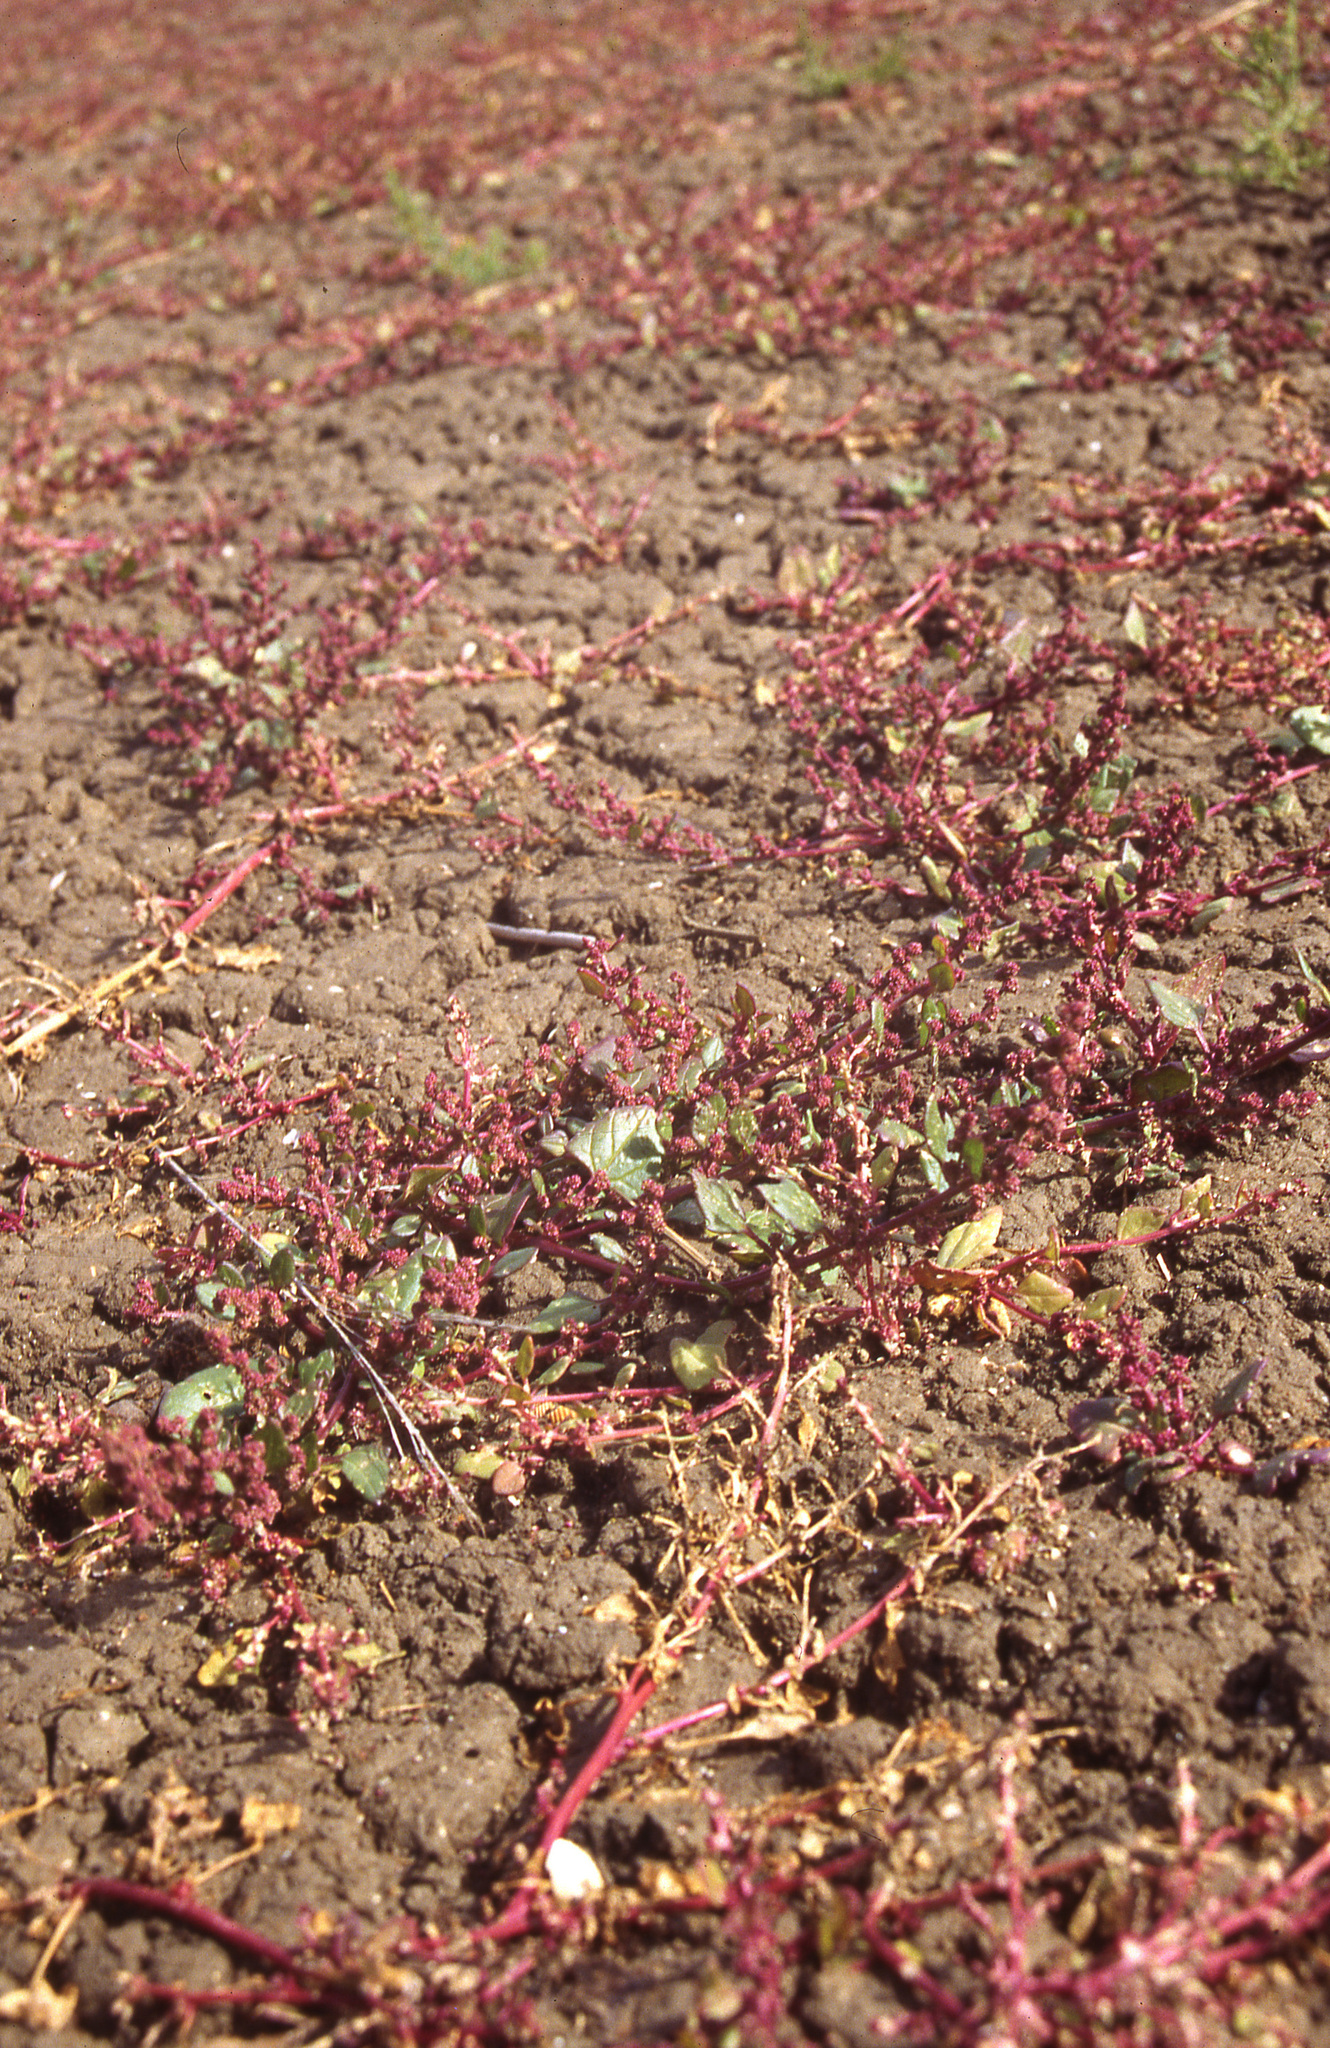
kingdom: Plantae
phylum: Tracheophyta
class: Magnoliopsida
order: Caryophyllales
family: Amaranthaceae
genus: Oxybasis
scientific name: Oxybasis chenopodioides
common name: Saltmarsh goosefoot
